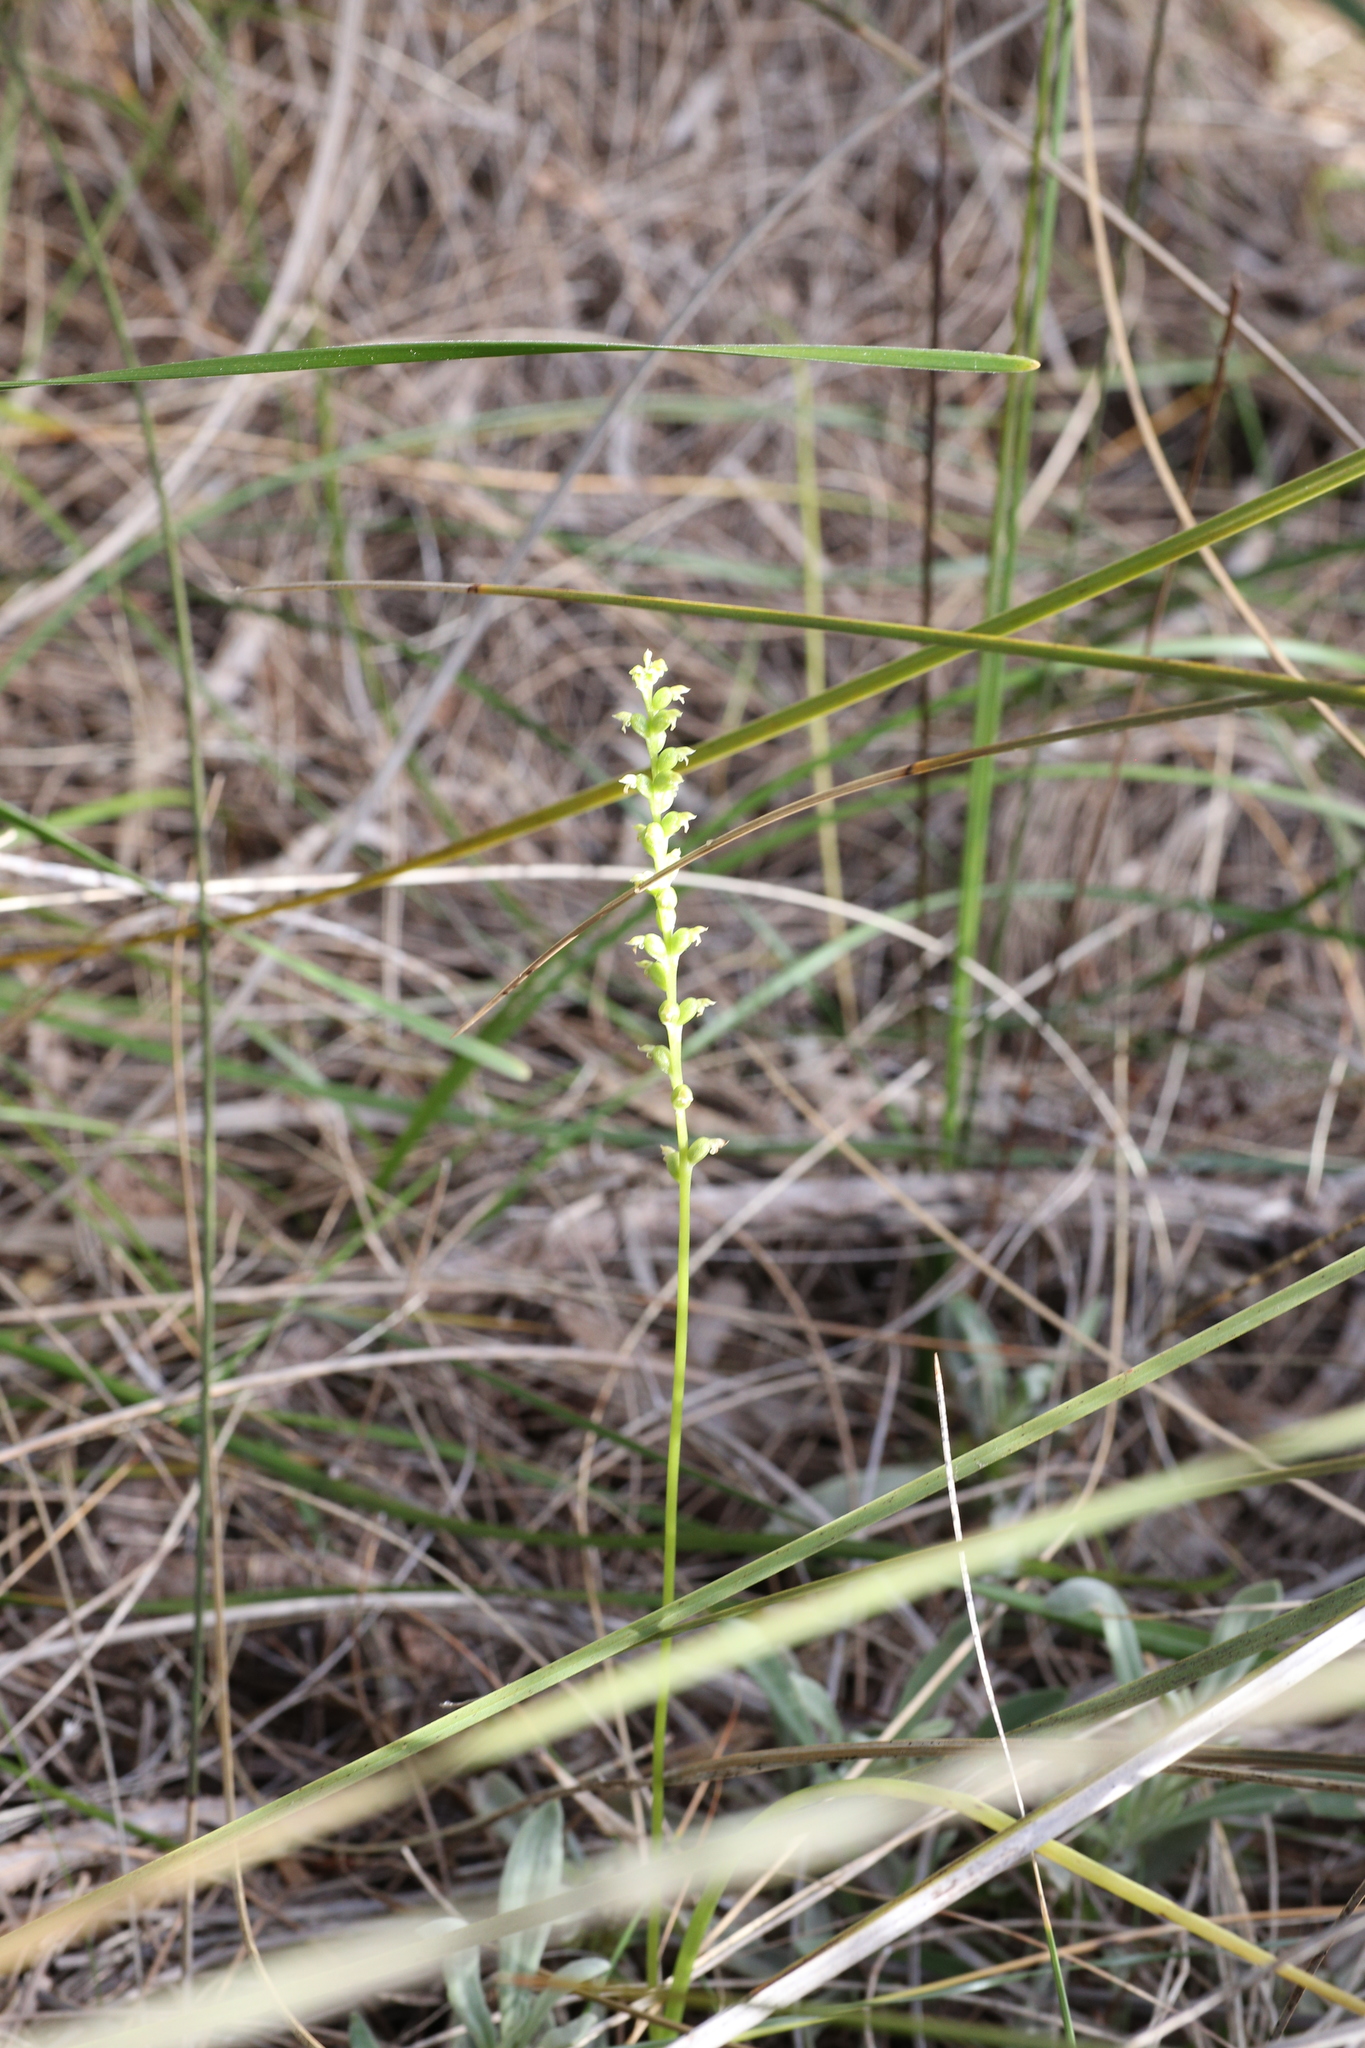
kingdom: Plantae
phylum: Tracheophyta
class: Liliopsida
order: Asparagales
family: Orchidaceae
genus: Microtis
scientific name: Microtis media
